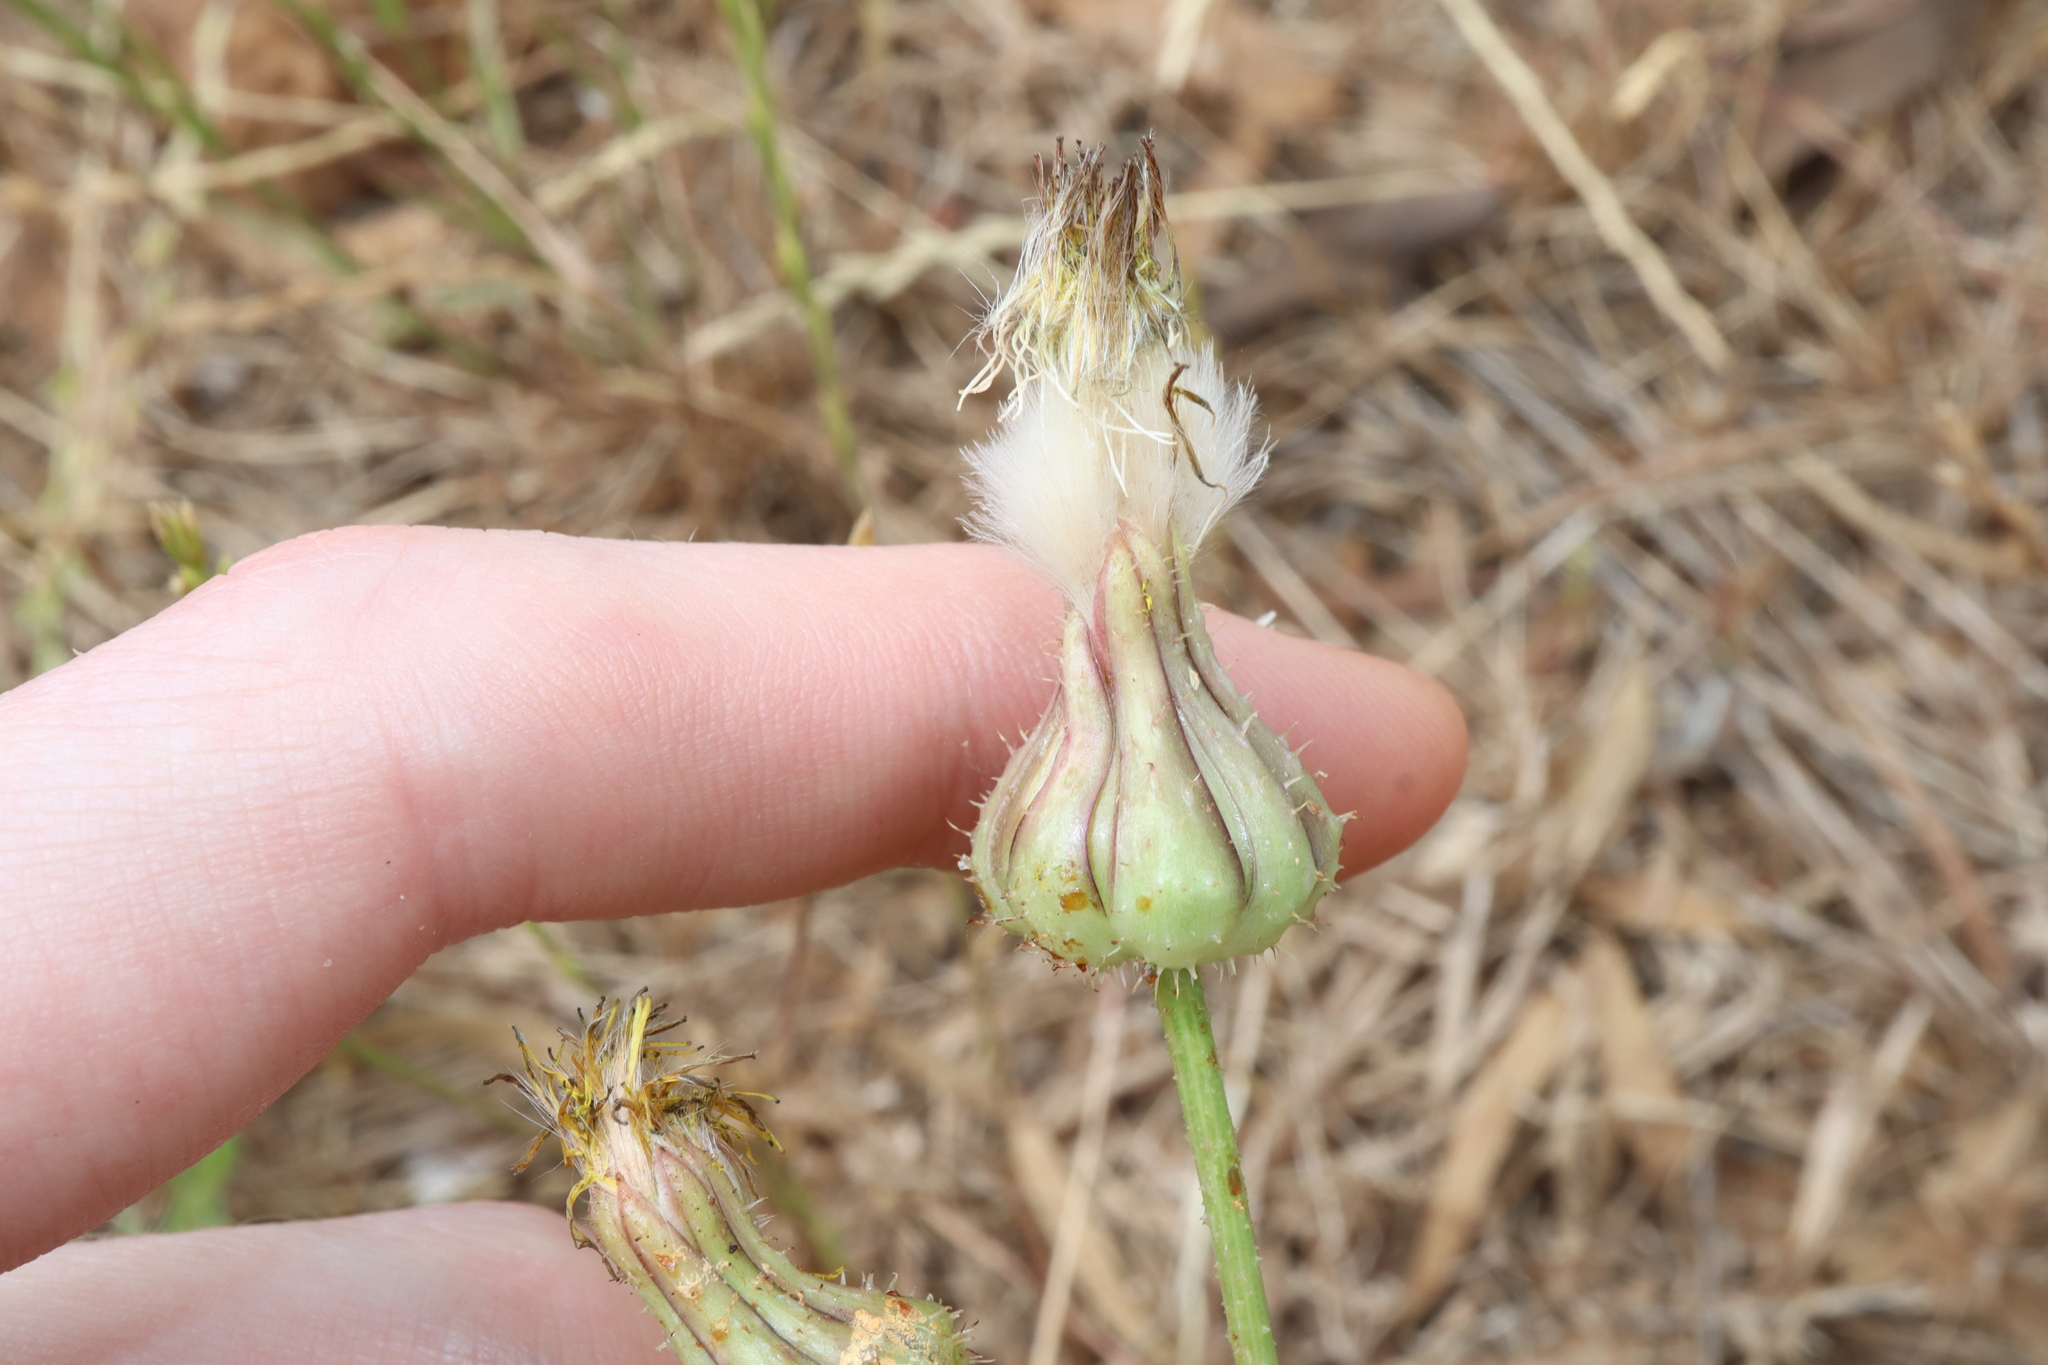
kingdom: Plantae
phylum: Tracheophyta
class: Magnoliopsida
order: Asterales
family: Asteraceae
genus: Urospermum
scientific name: Urospermum picroides
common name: False hawkbit
